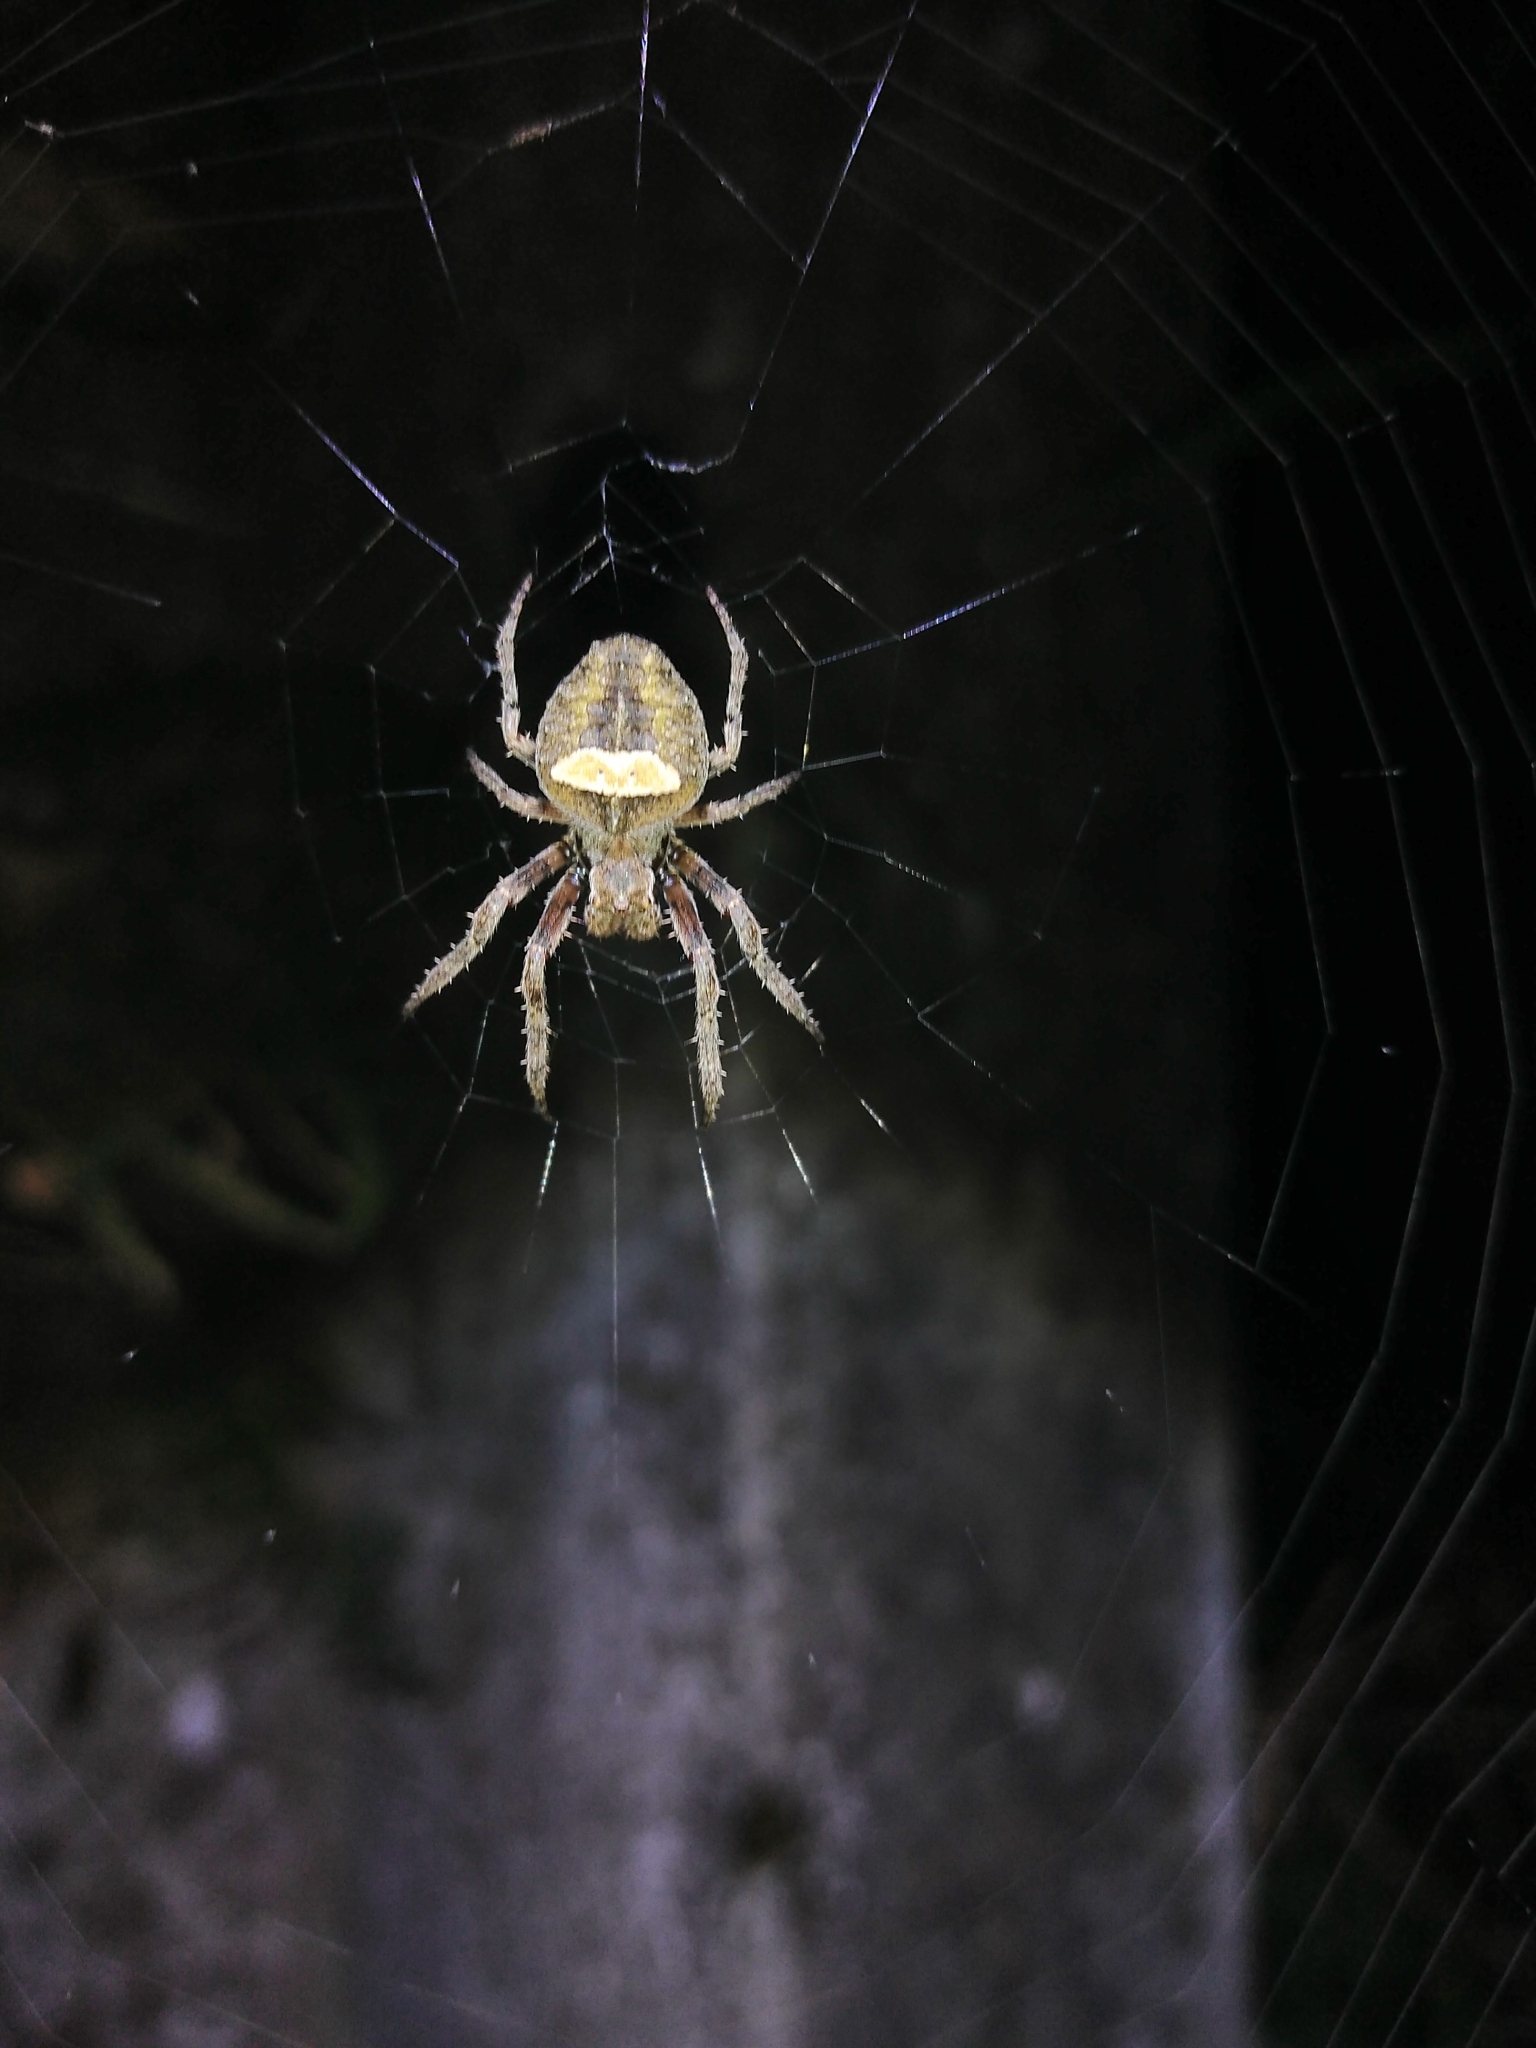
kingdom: Animalia
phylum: Arthropoda
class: Arachnida
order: Araneae
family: Araneidae
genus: Parawixia
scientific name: Parawixia audax
